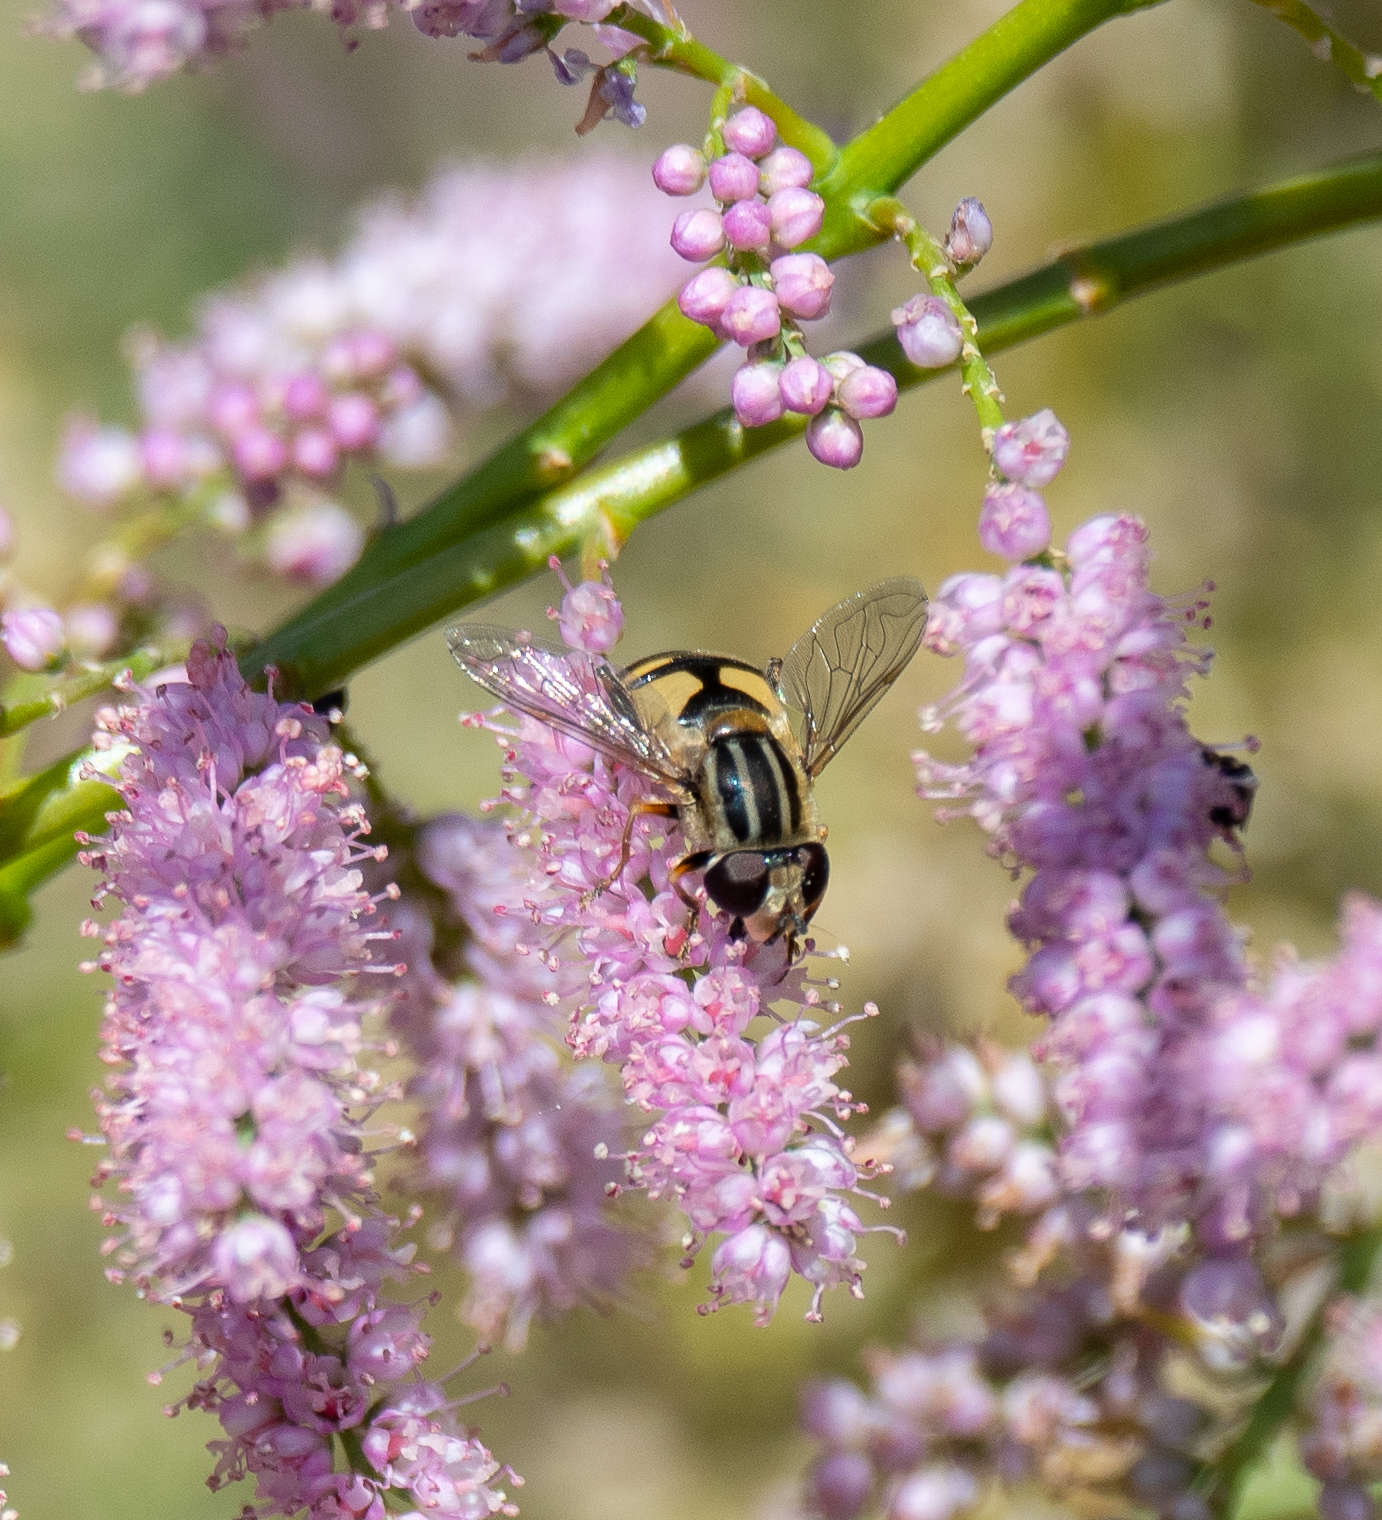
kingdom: Animalia
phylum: Arthropoda
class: Insecta
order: Diptera
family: Syrphidae
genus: Helophilus
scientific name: Helophilus latifrons
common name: Broad-headed marsh fly
